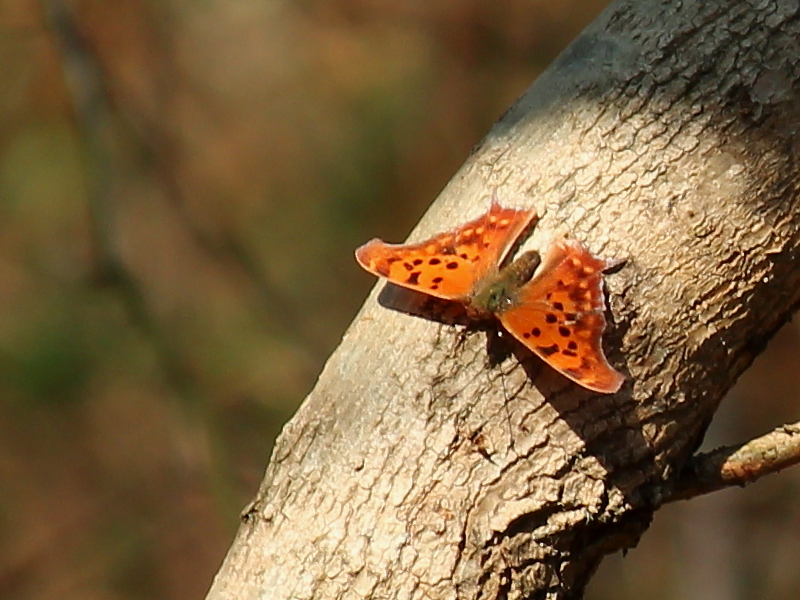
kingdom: Animalia
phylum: Arthropoda
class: Insecta
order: Lepidoptera
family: Nymphalidae
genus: Polygonia
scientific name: Polygonia interrogationis
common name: Question mark
